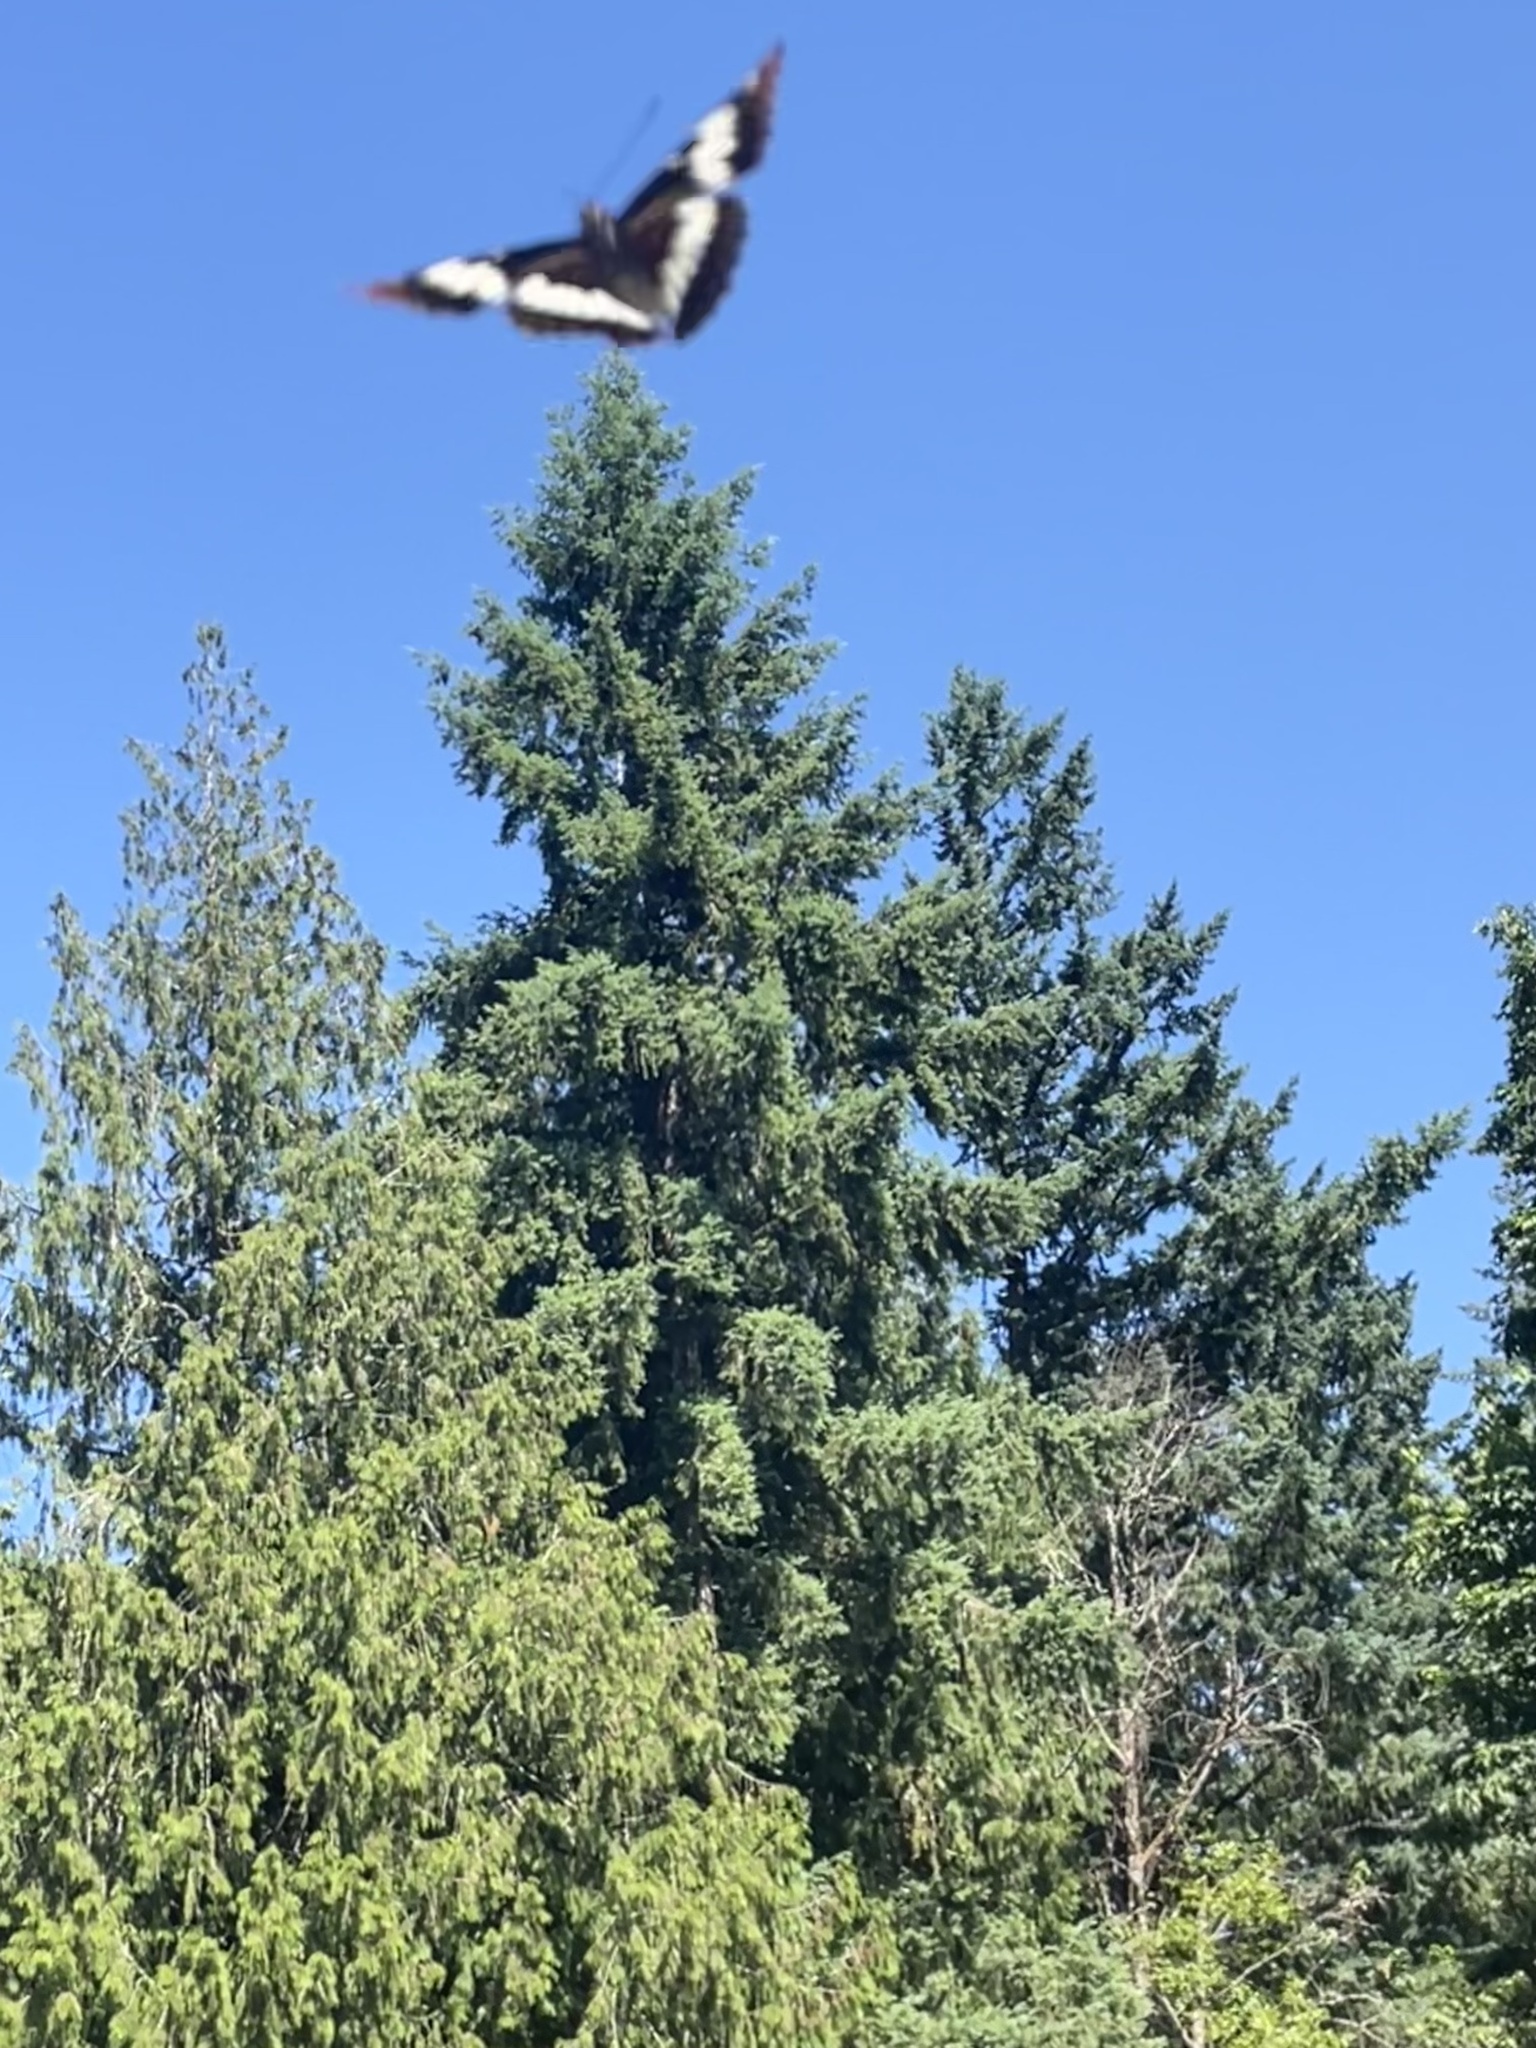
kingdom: Animalia
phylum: Arthropoda
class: Insecta
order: Lepidoptera
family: Nymphalidae
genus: Limenitis
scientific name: Limenitis lorquini
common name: Lorquin's admiral
